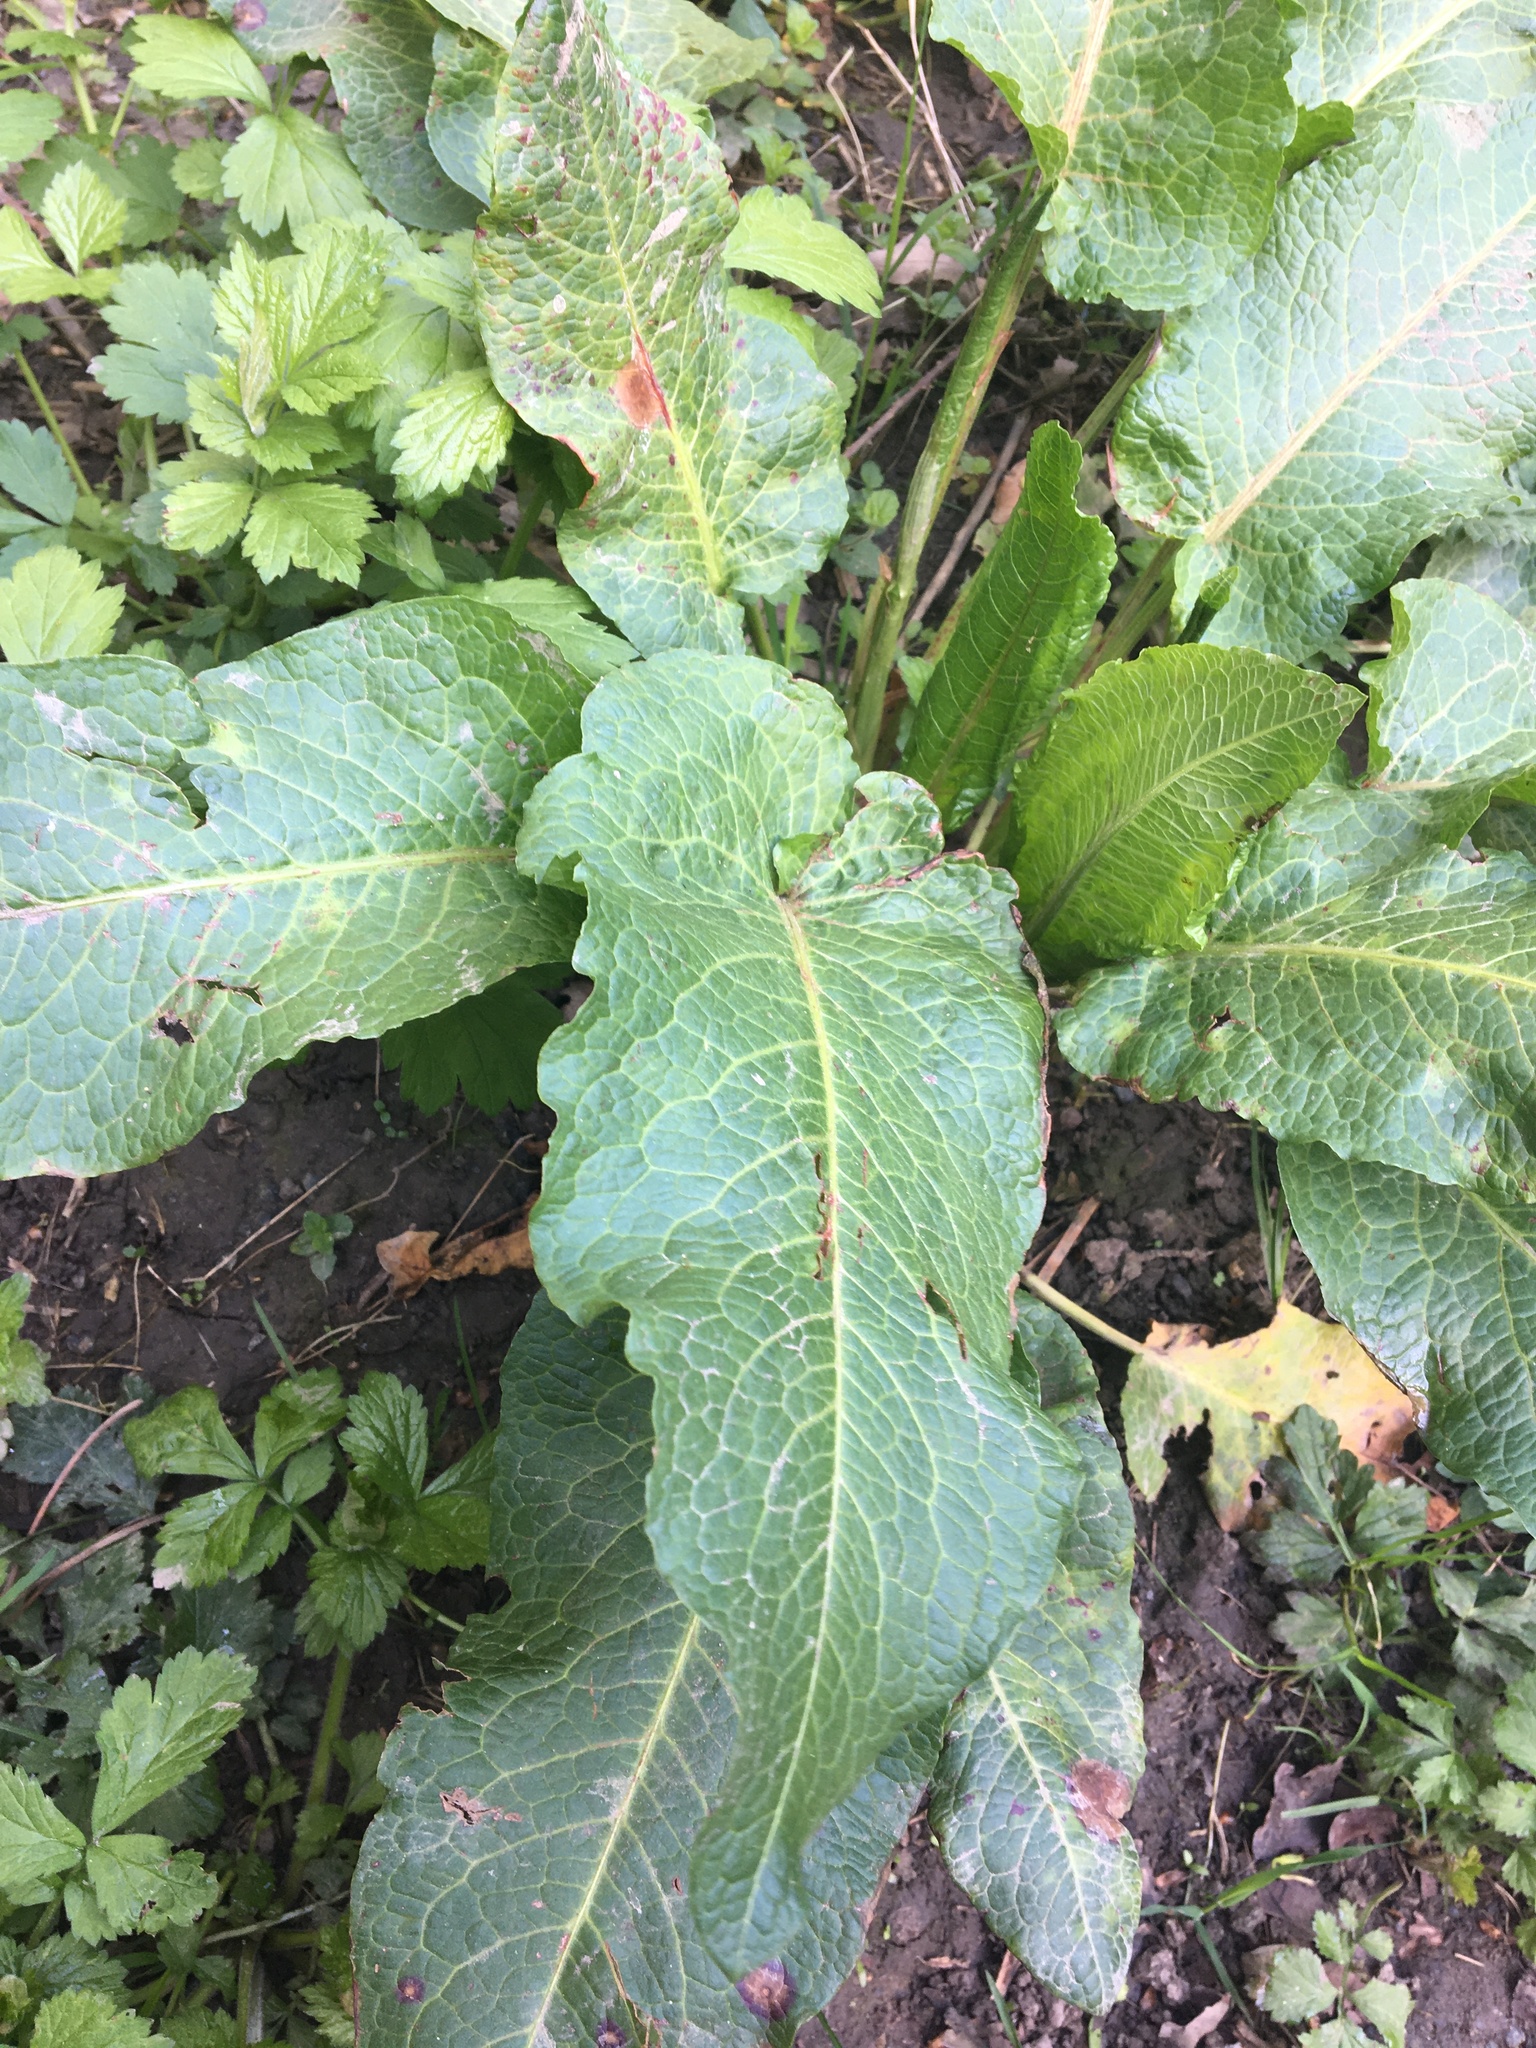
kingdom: Plantae
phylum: Tracheophyta
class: Magnoliopsida
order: Caryophyllales
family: Polygonaceae
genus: Rumex
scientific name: Rumex obtusifolius
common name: Bitter dock
